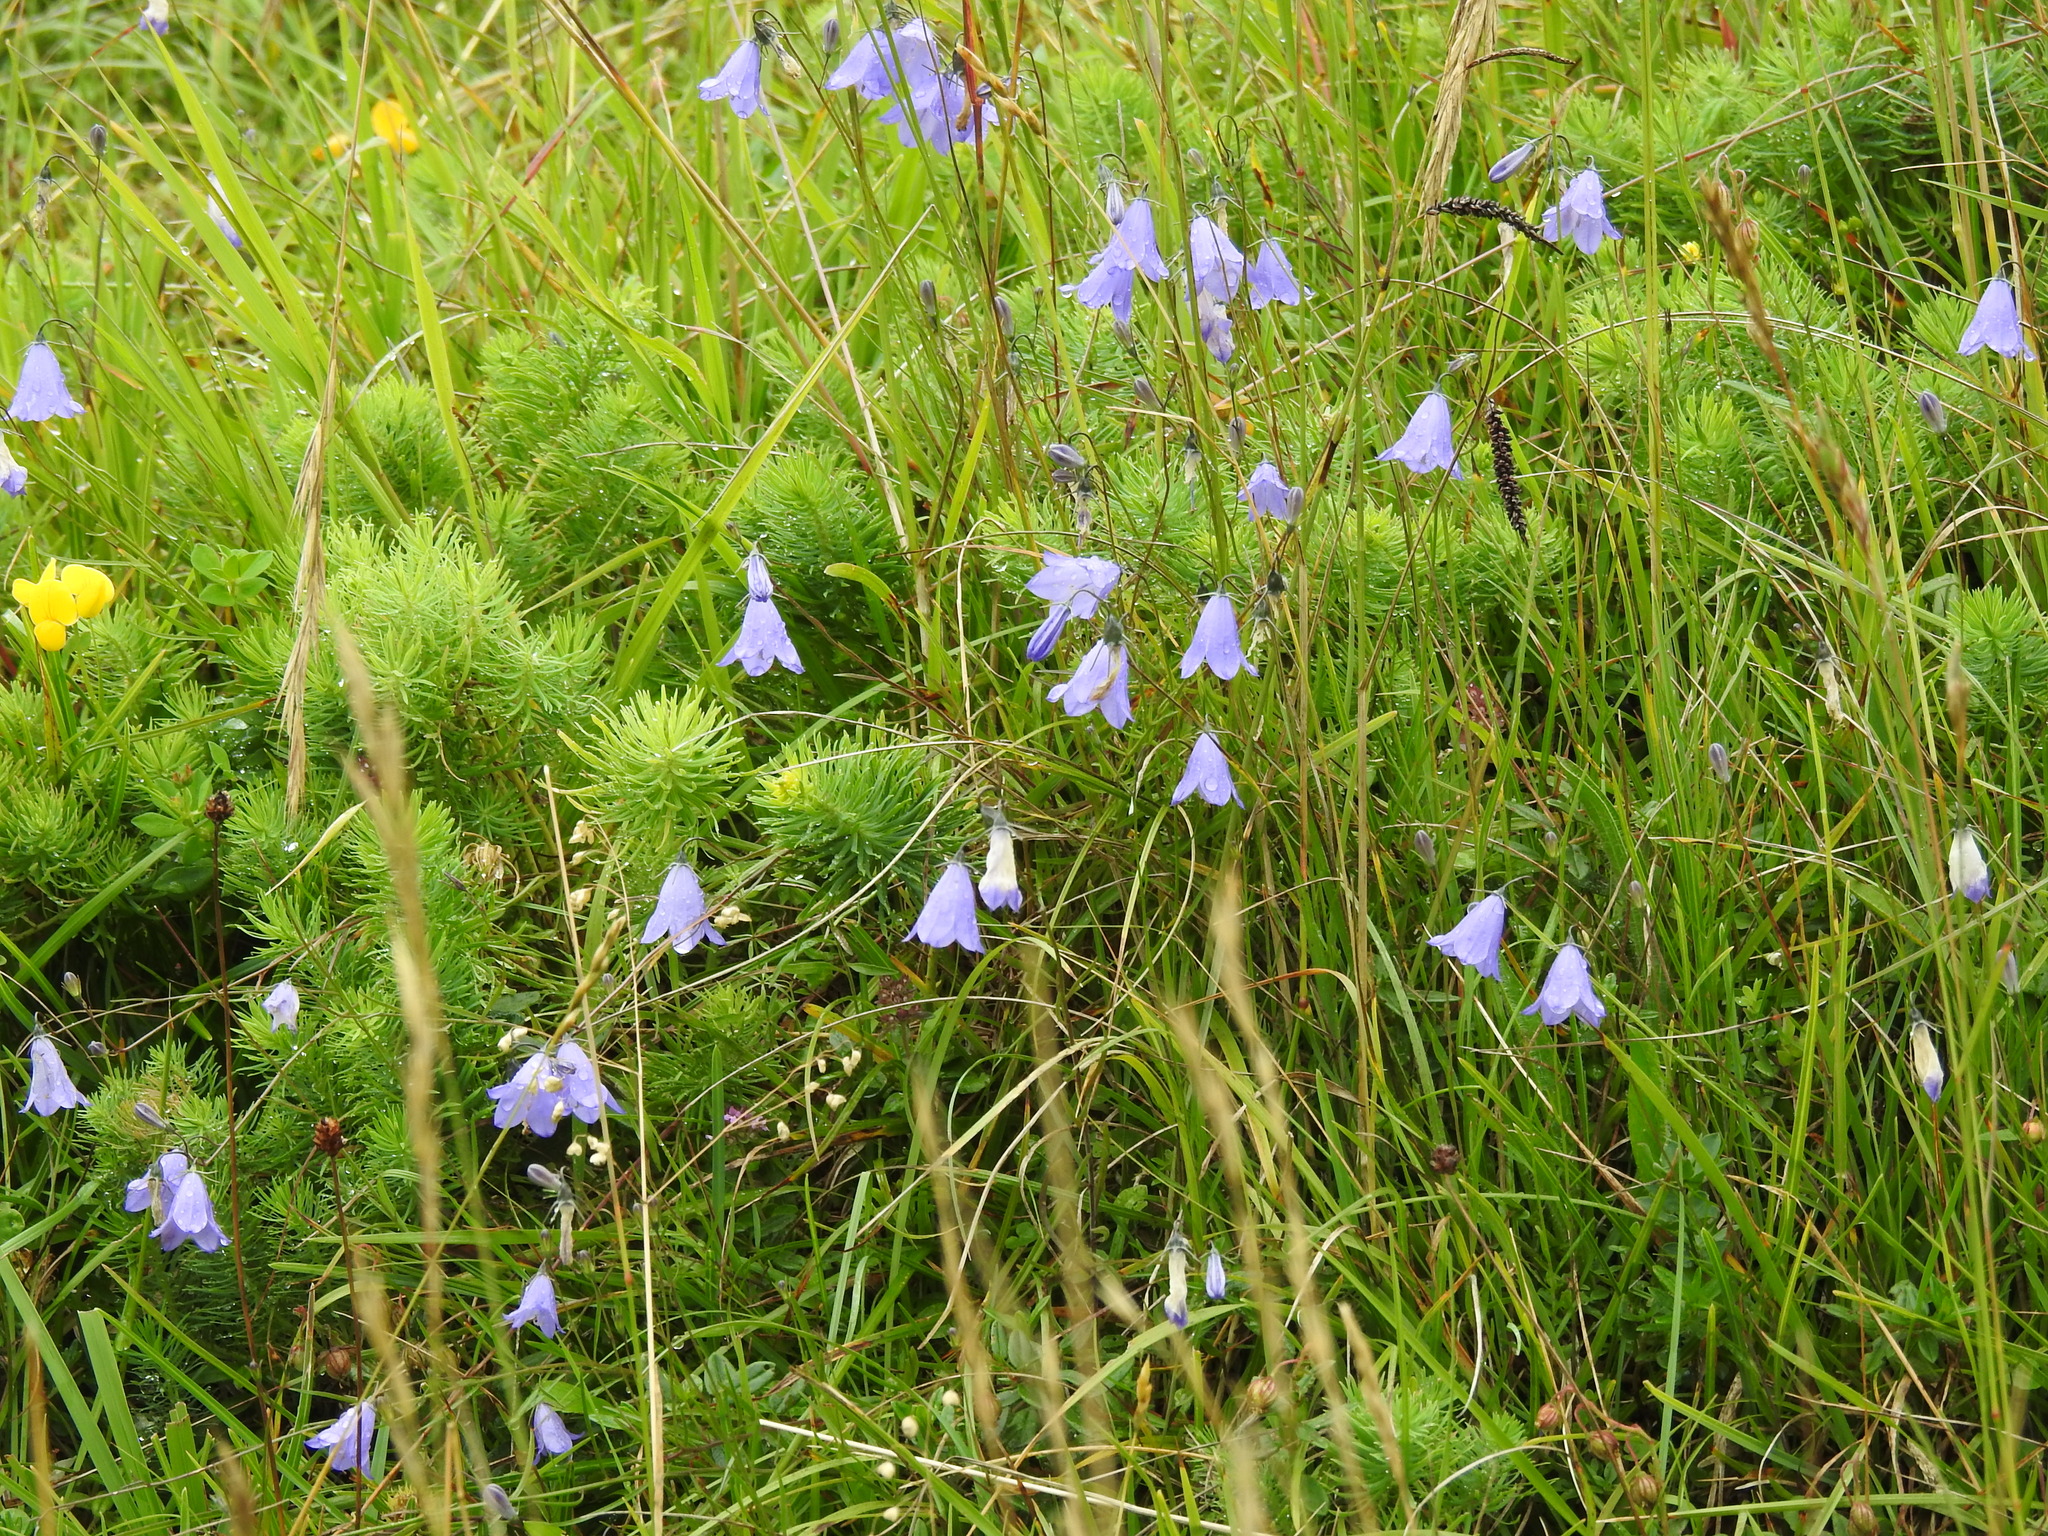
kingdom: Plantae
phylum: Tracheophyta
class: Magnoliopsida
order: Asterales
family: Campanulaceae
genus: Campanula
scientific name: Campanula rotundifolia
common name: Harebell
